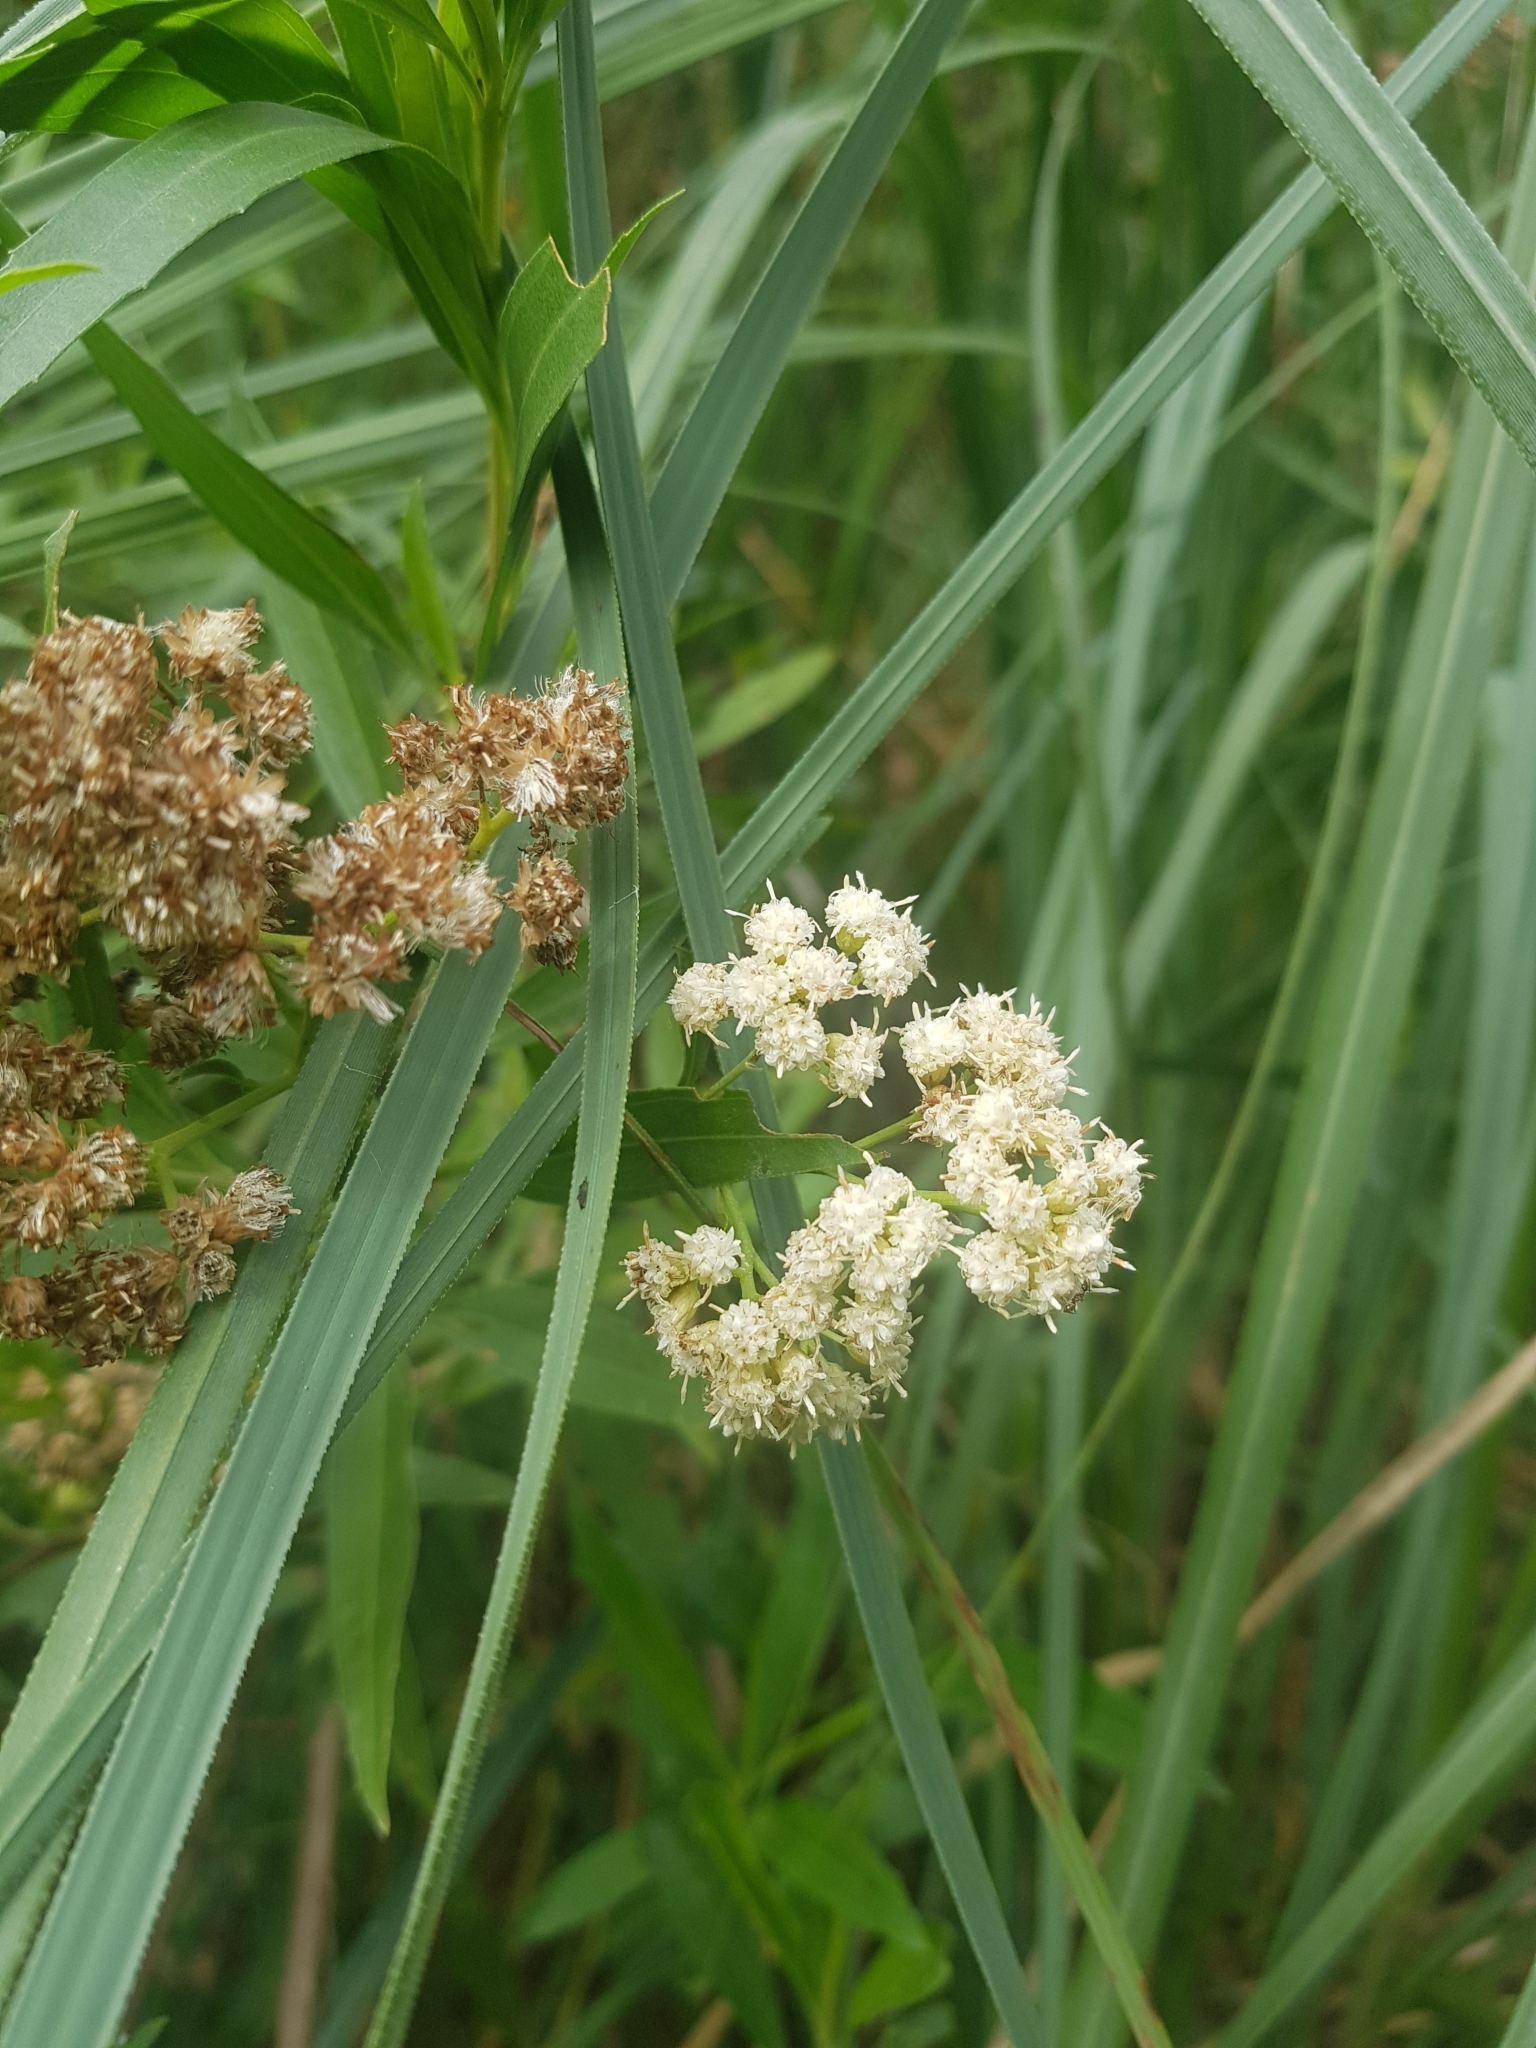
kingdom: Plantae
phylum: Tracheophyta
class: Magnoliopsida
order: Asterales
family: Asteraceae
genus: Baccharis
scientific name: Baccharis salicifolia
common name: Sticky baccharis
